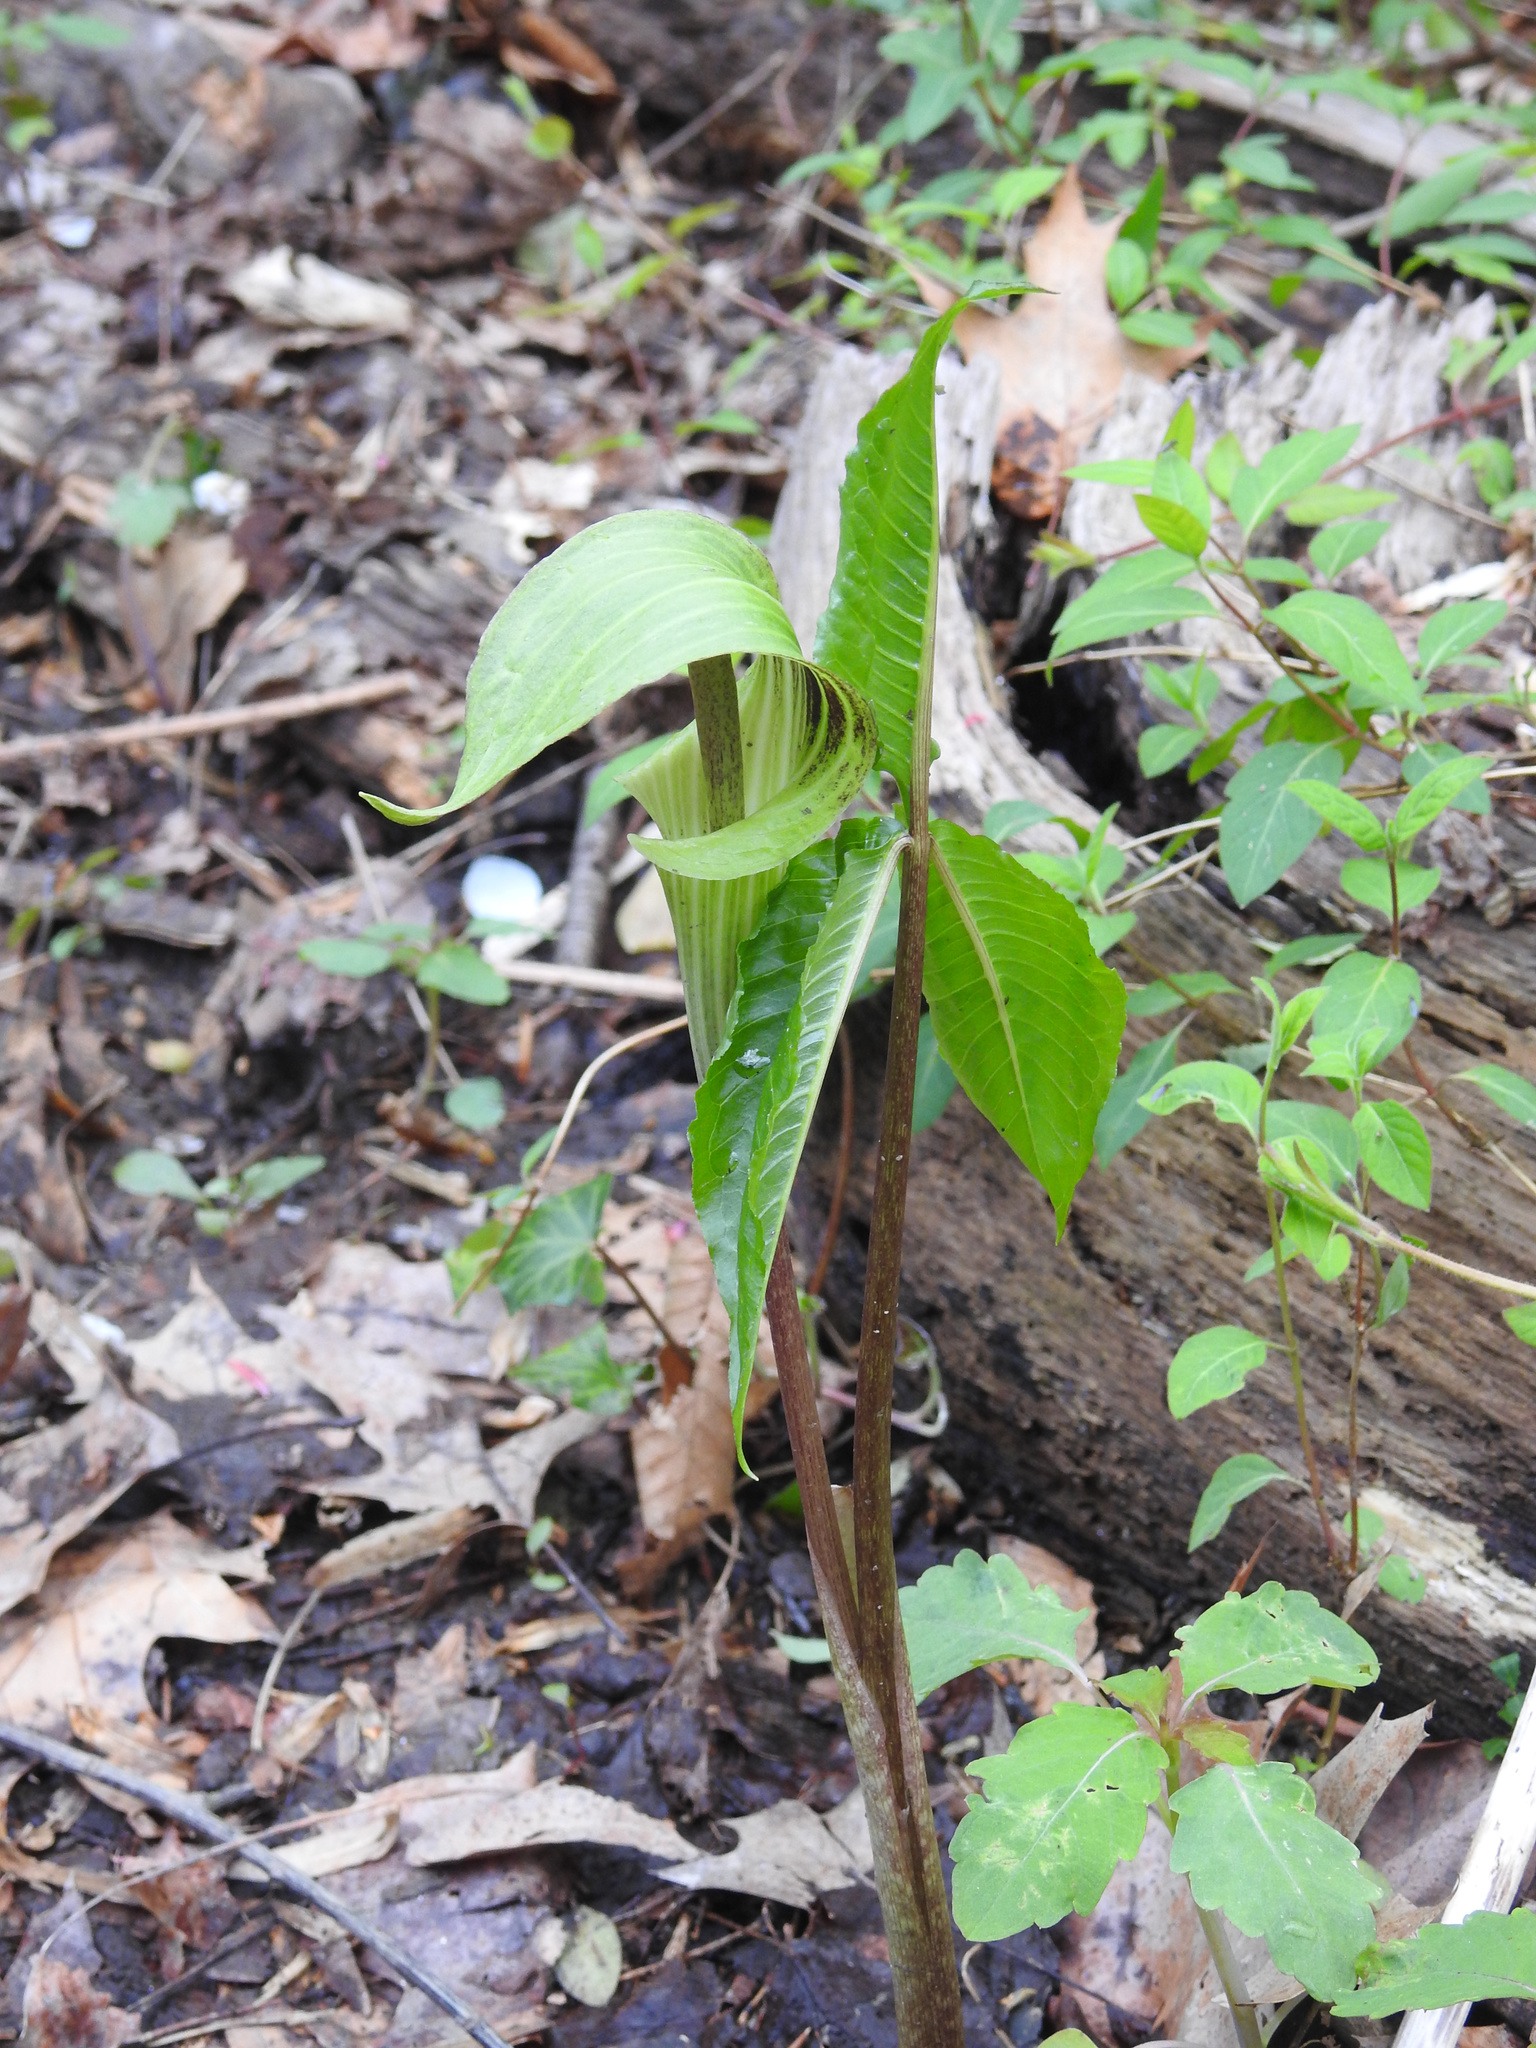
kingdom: Plantae
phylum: Tracheophyta
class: Liliopsida
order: Alismatales
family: Araceae
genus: Arisaema
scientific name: Arisaema triphyllum
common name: Jack-in-the-pulpit
